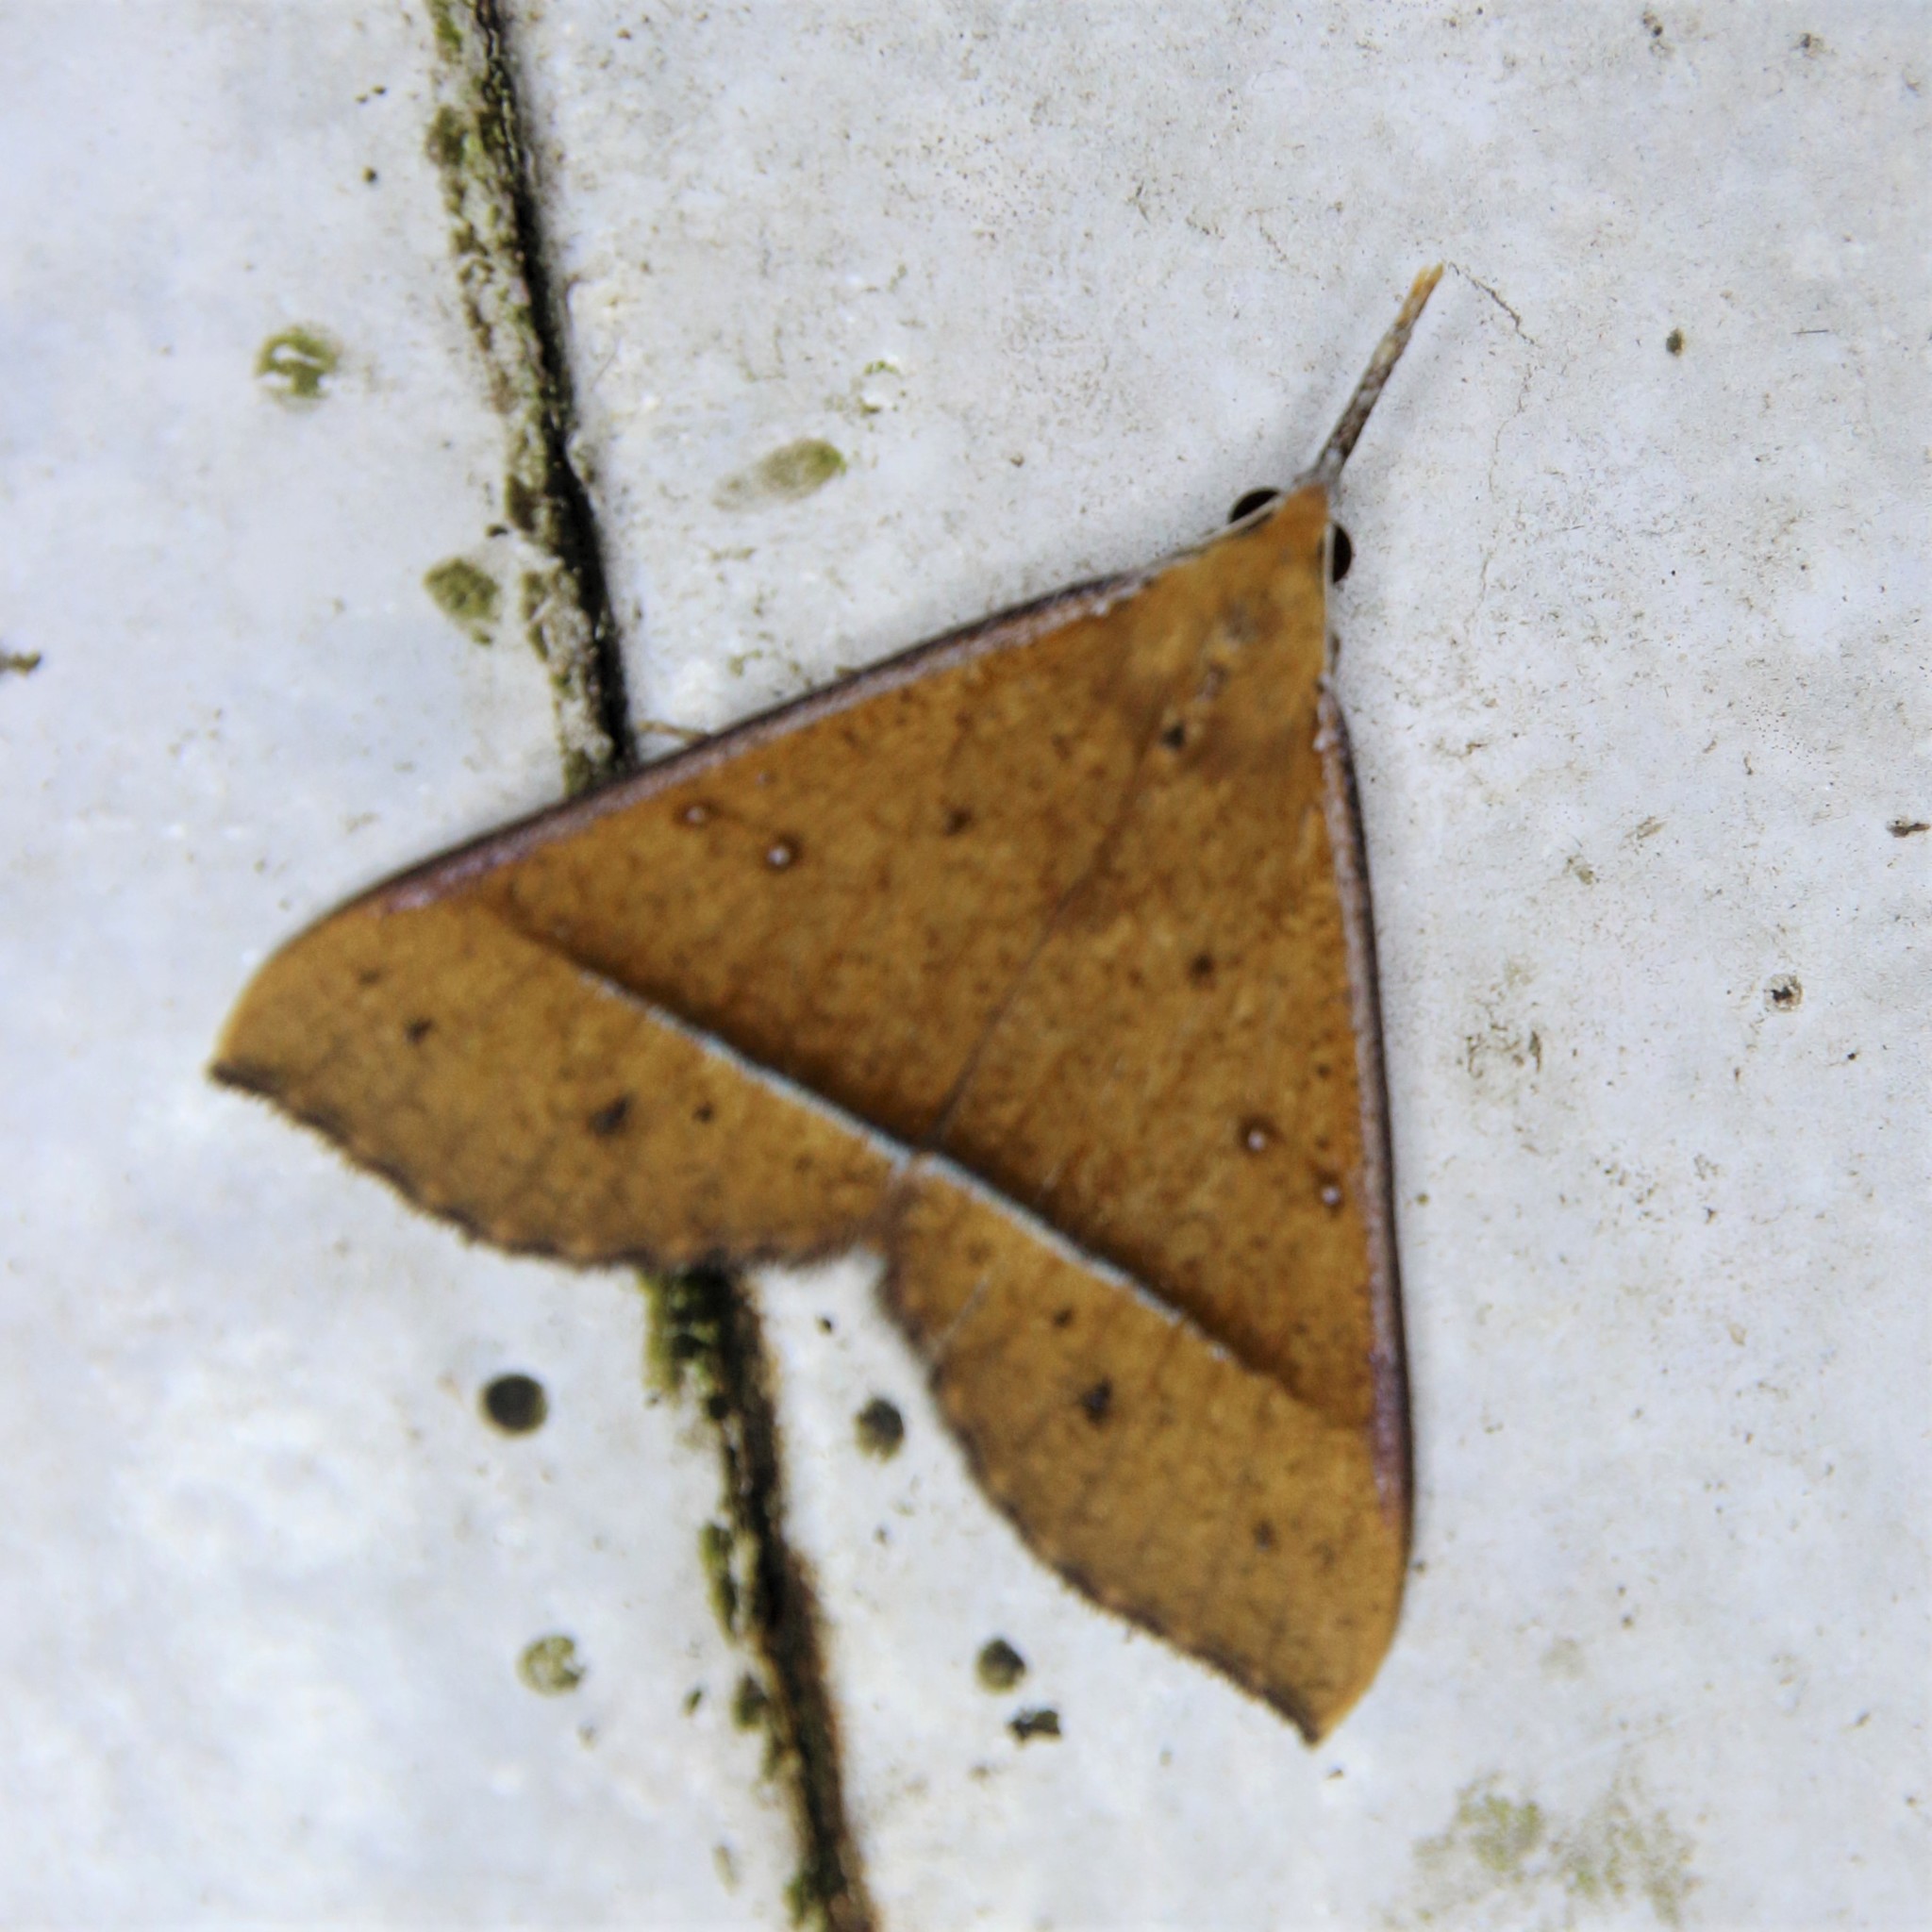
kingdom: Animalia
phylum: Arthropoda
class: Insecta
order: Lepidoptera
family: Erebidae
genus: Anoratha
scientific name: Anoratha paritalis
